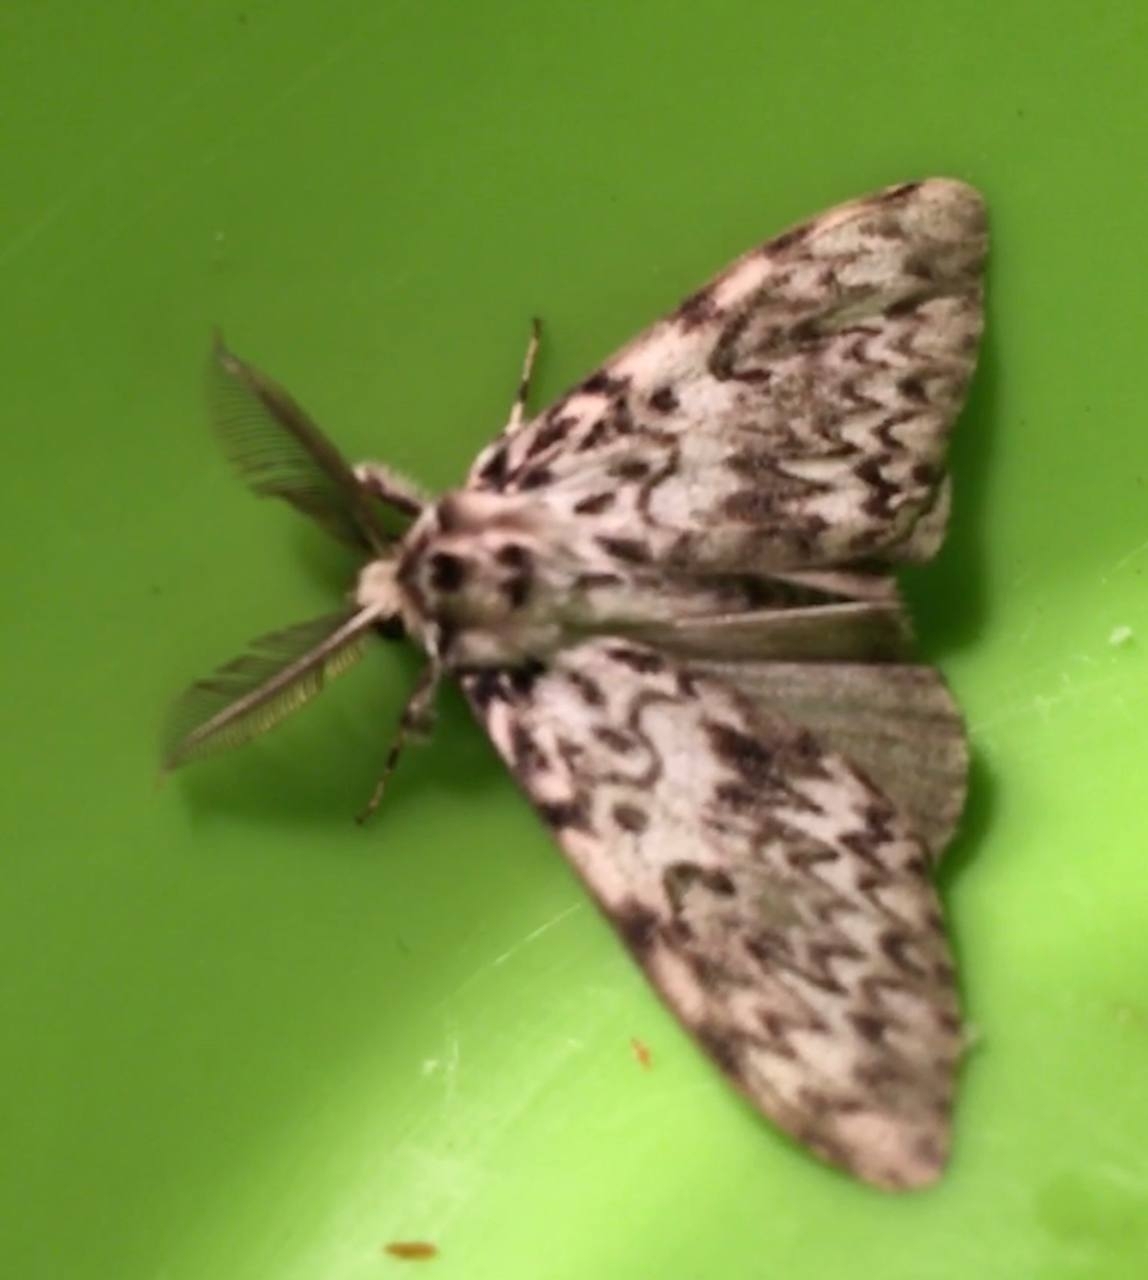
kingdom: Animalia
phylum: Arthropoda
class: Insecta
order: Lepidoptera
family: Erebidae
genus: Lymantria
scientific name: Lymantria monacha
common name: Black arches
